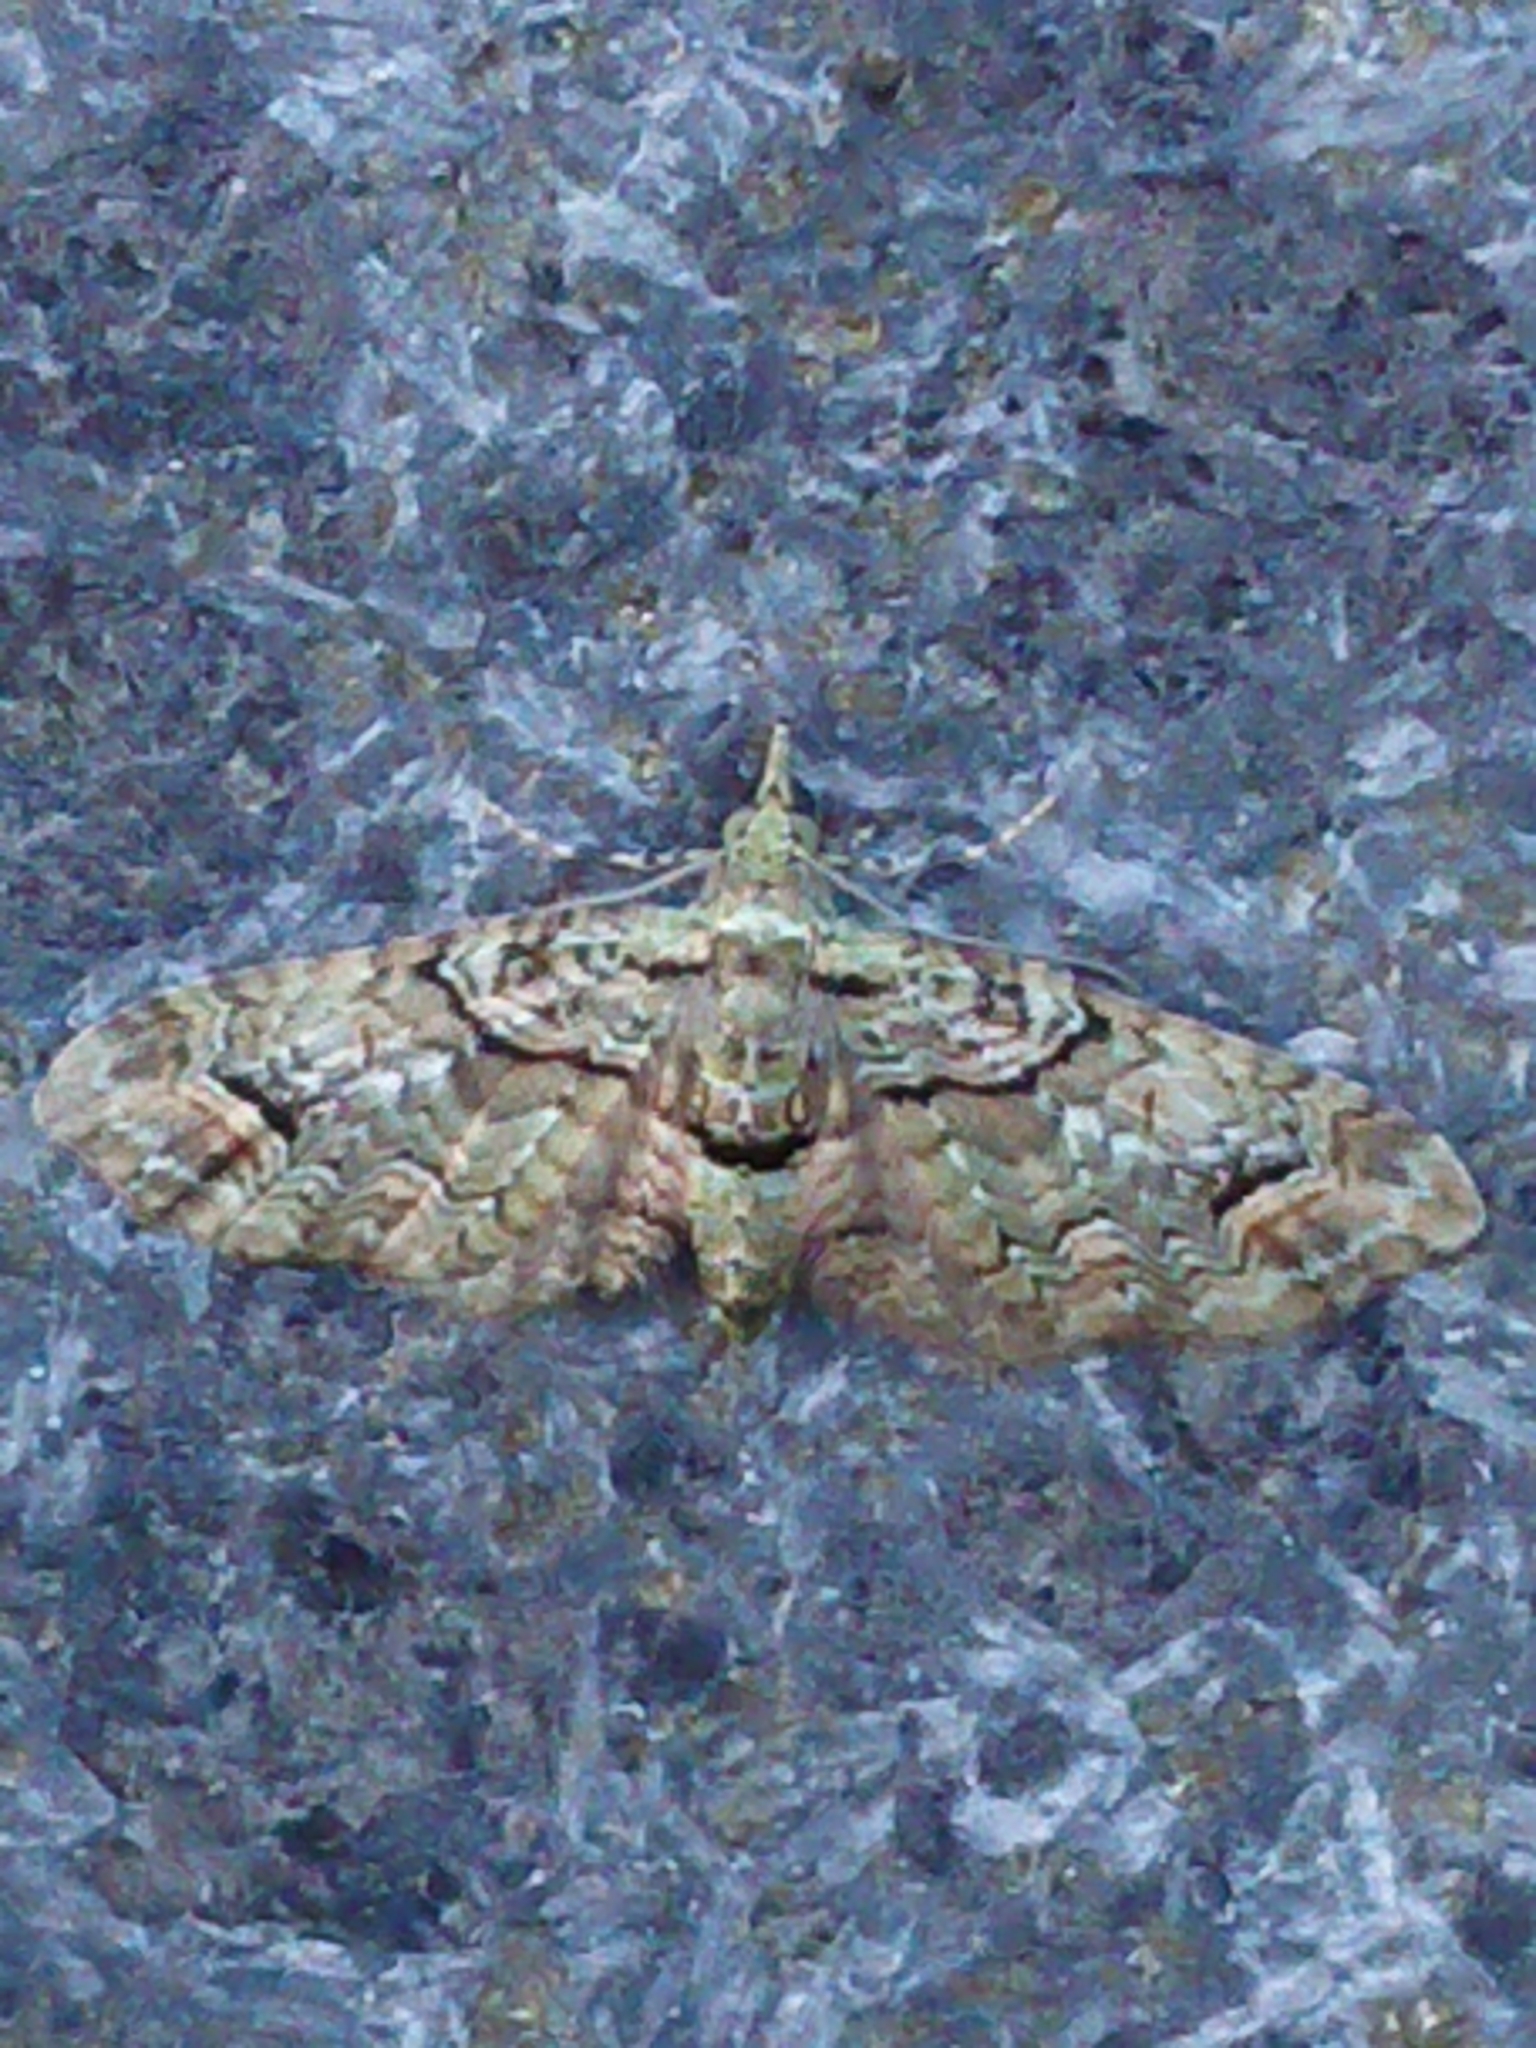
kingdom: Animalia
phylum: Arthropoda
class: Insecta
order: Lepidoptera
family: Geometridae
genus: Idaea
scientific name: Idaea mutanda
